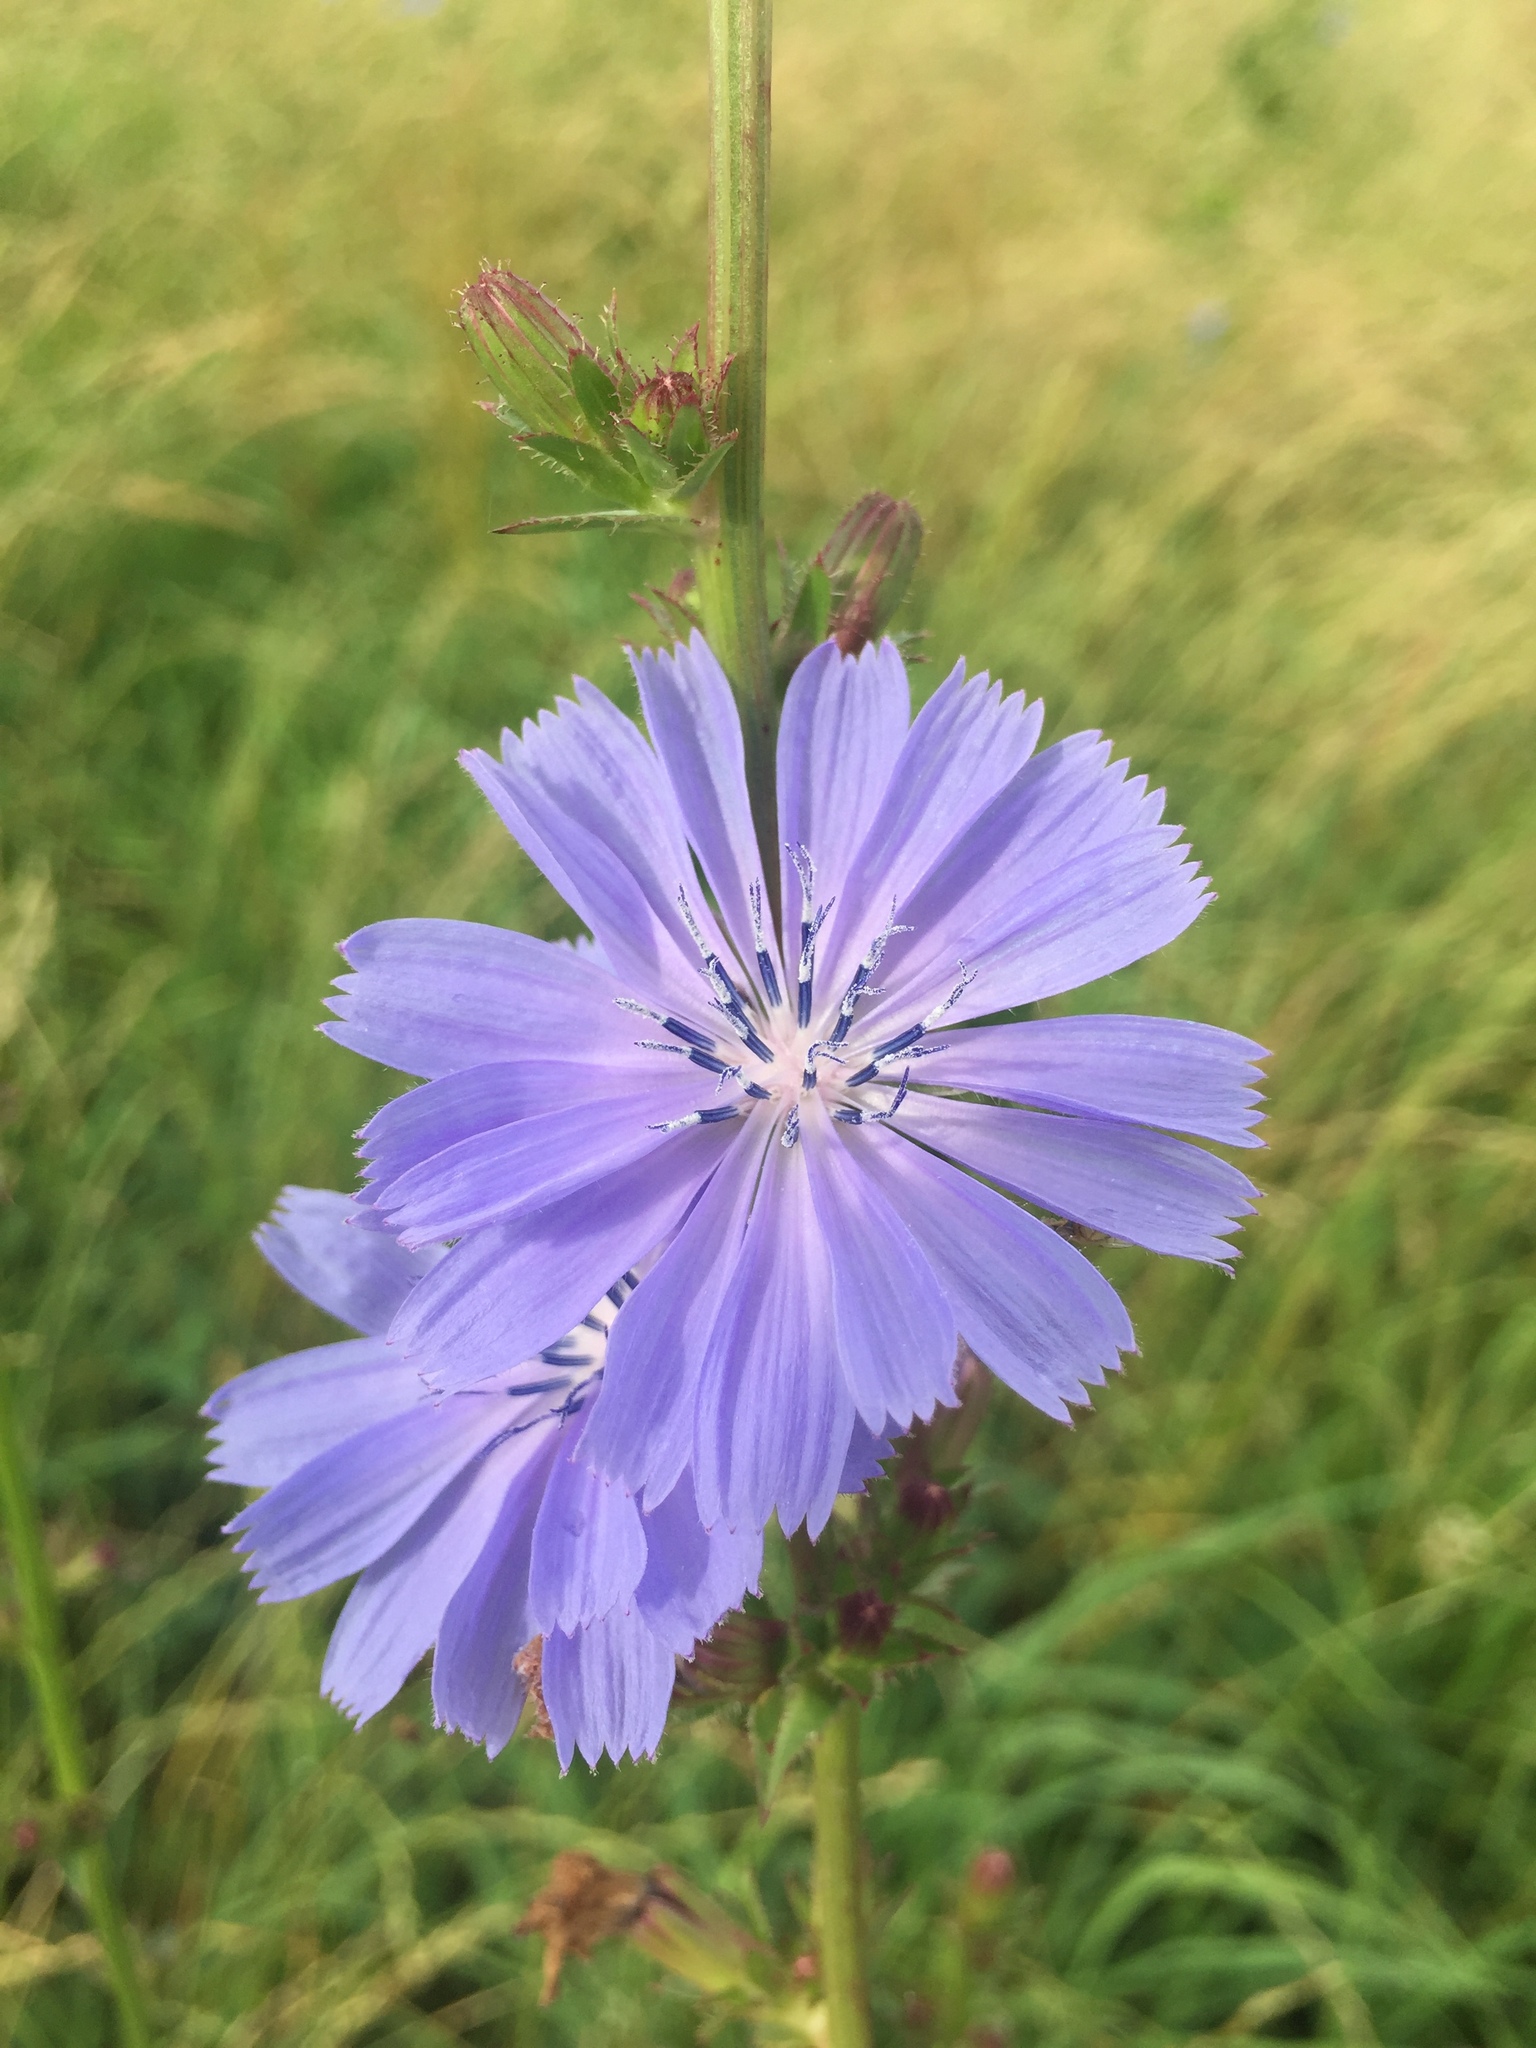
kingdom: Plantae
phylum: Tracheophyta
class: Magnoliopsida
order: Asterales
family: Asteraceae
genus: Cichorium
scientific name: Cichorium intybus
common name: Chicory
